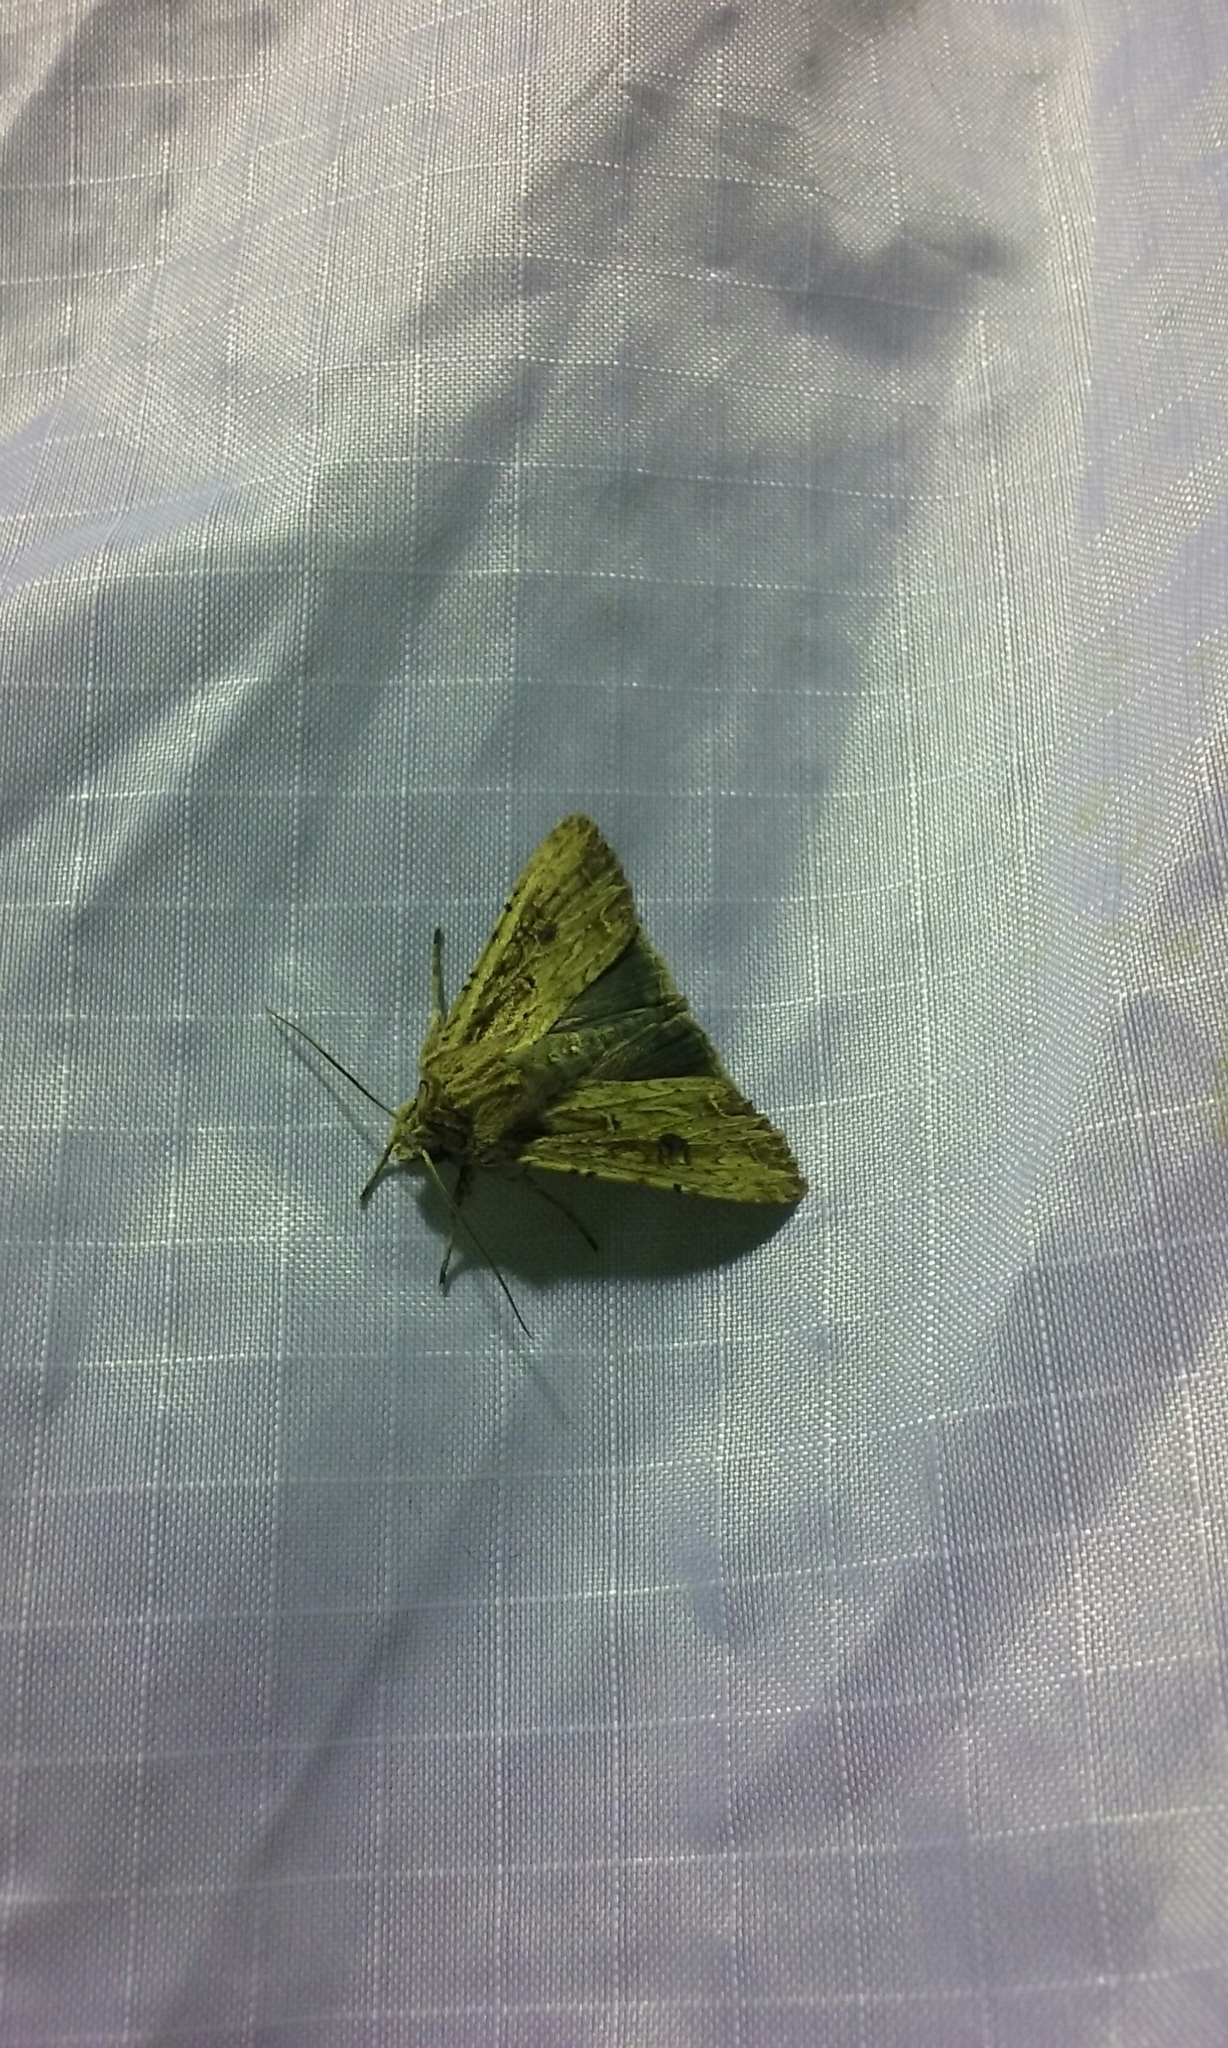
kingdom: Animalia
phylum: Arthropoda
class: Insecta
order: Lepidoptera
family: Noctuidae
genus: Ichneutica
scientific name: Ichneutica lignana
